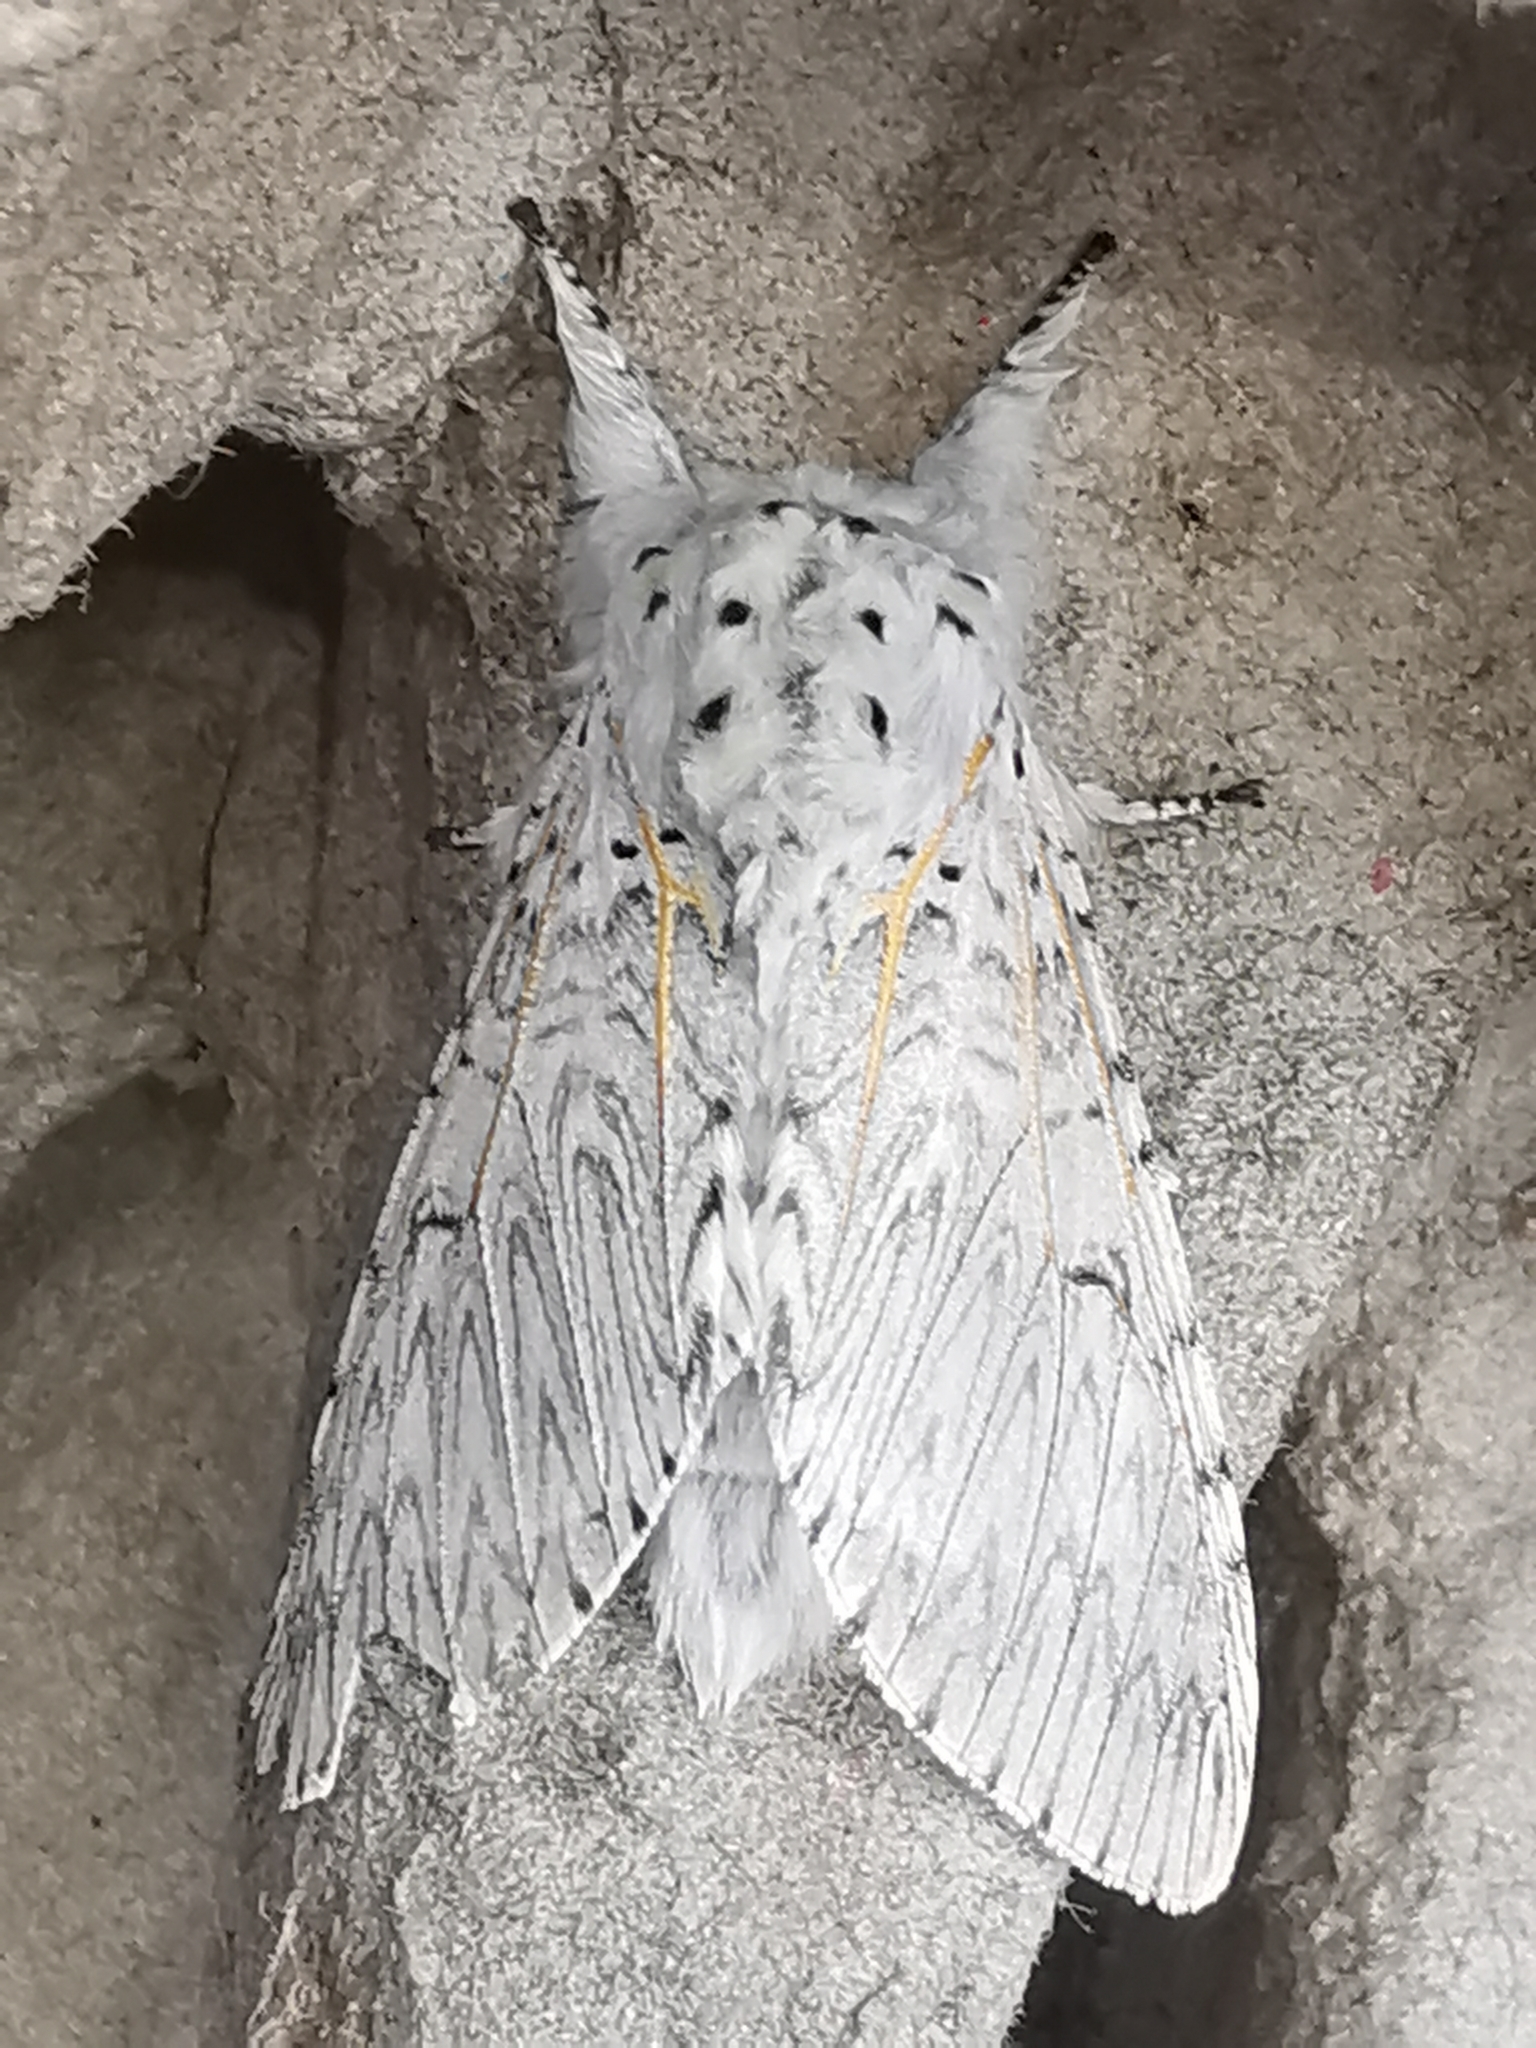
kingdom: Animalia
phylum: Arthropoda
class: Insecta
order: Lepidoptera
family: Notodontidae
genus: Cerura
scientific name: Cerura vinula
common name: Puss moth
